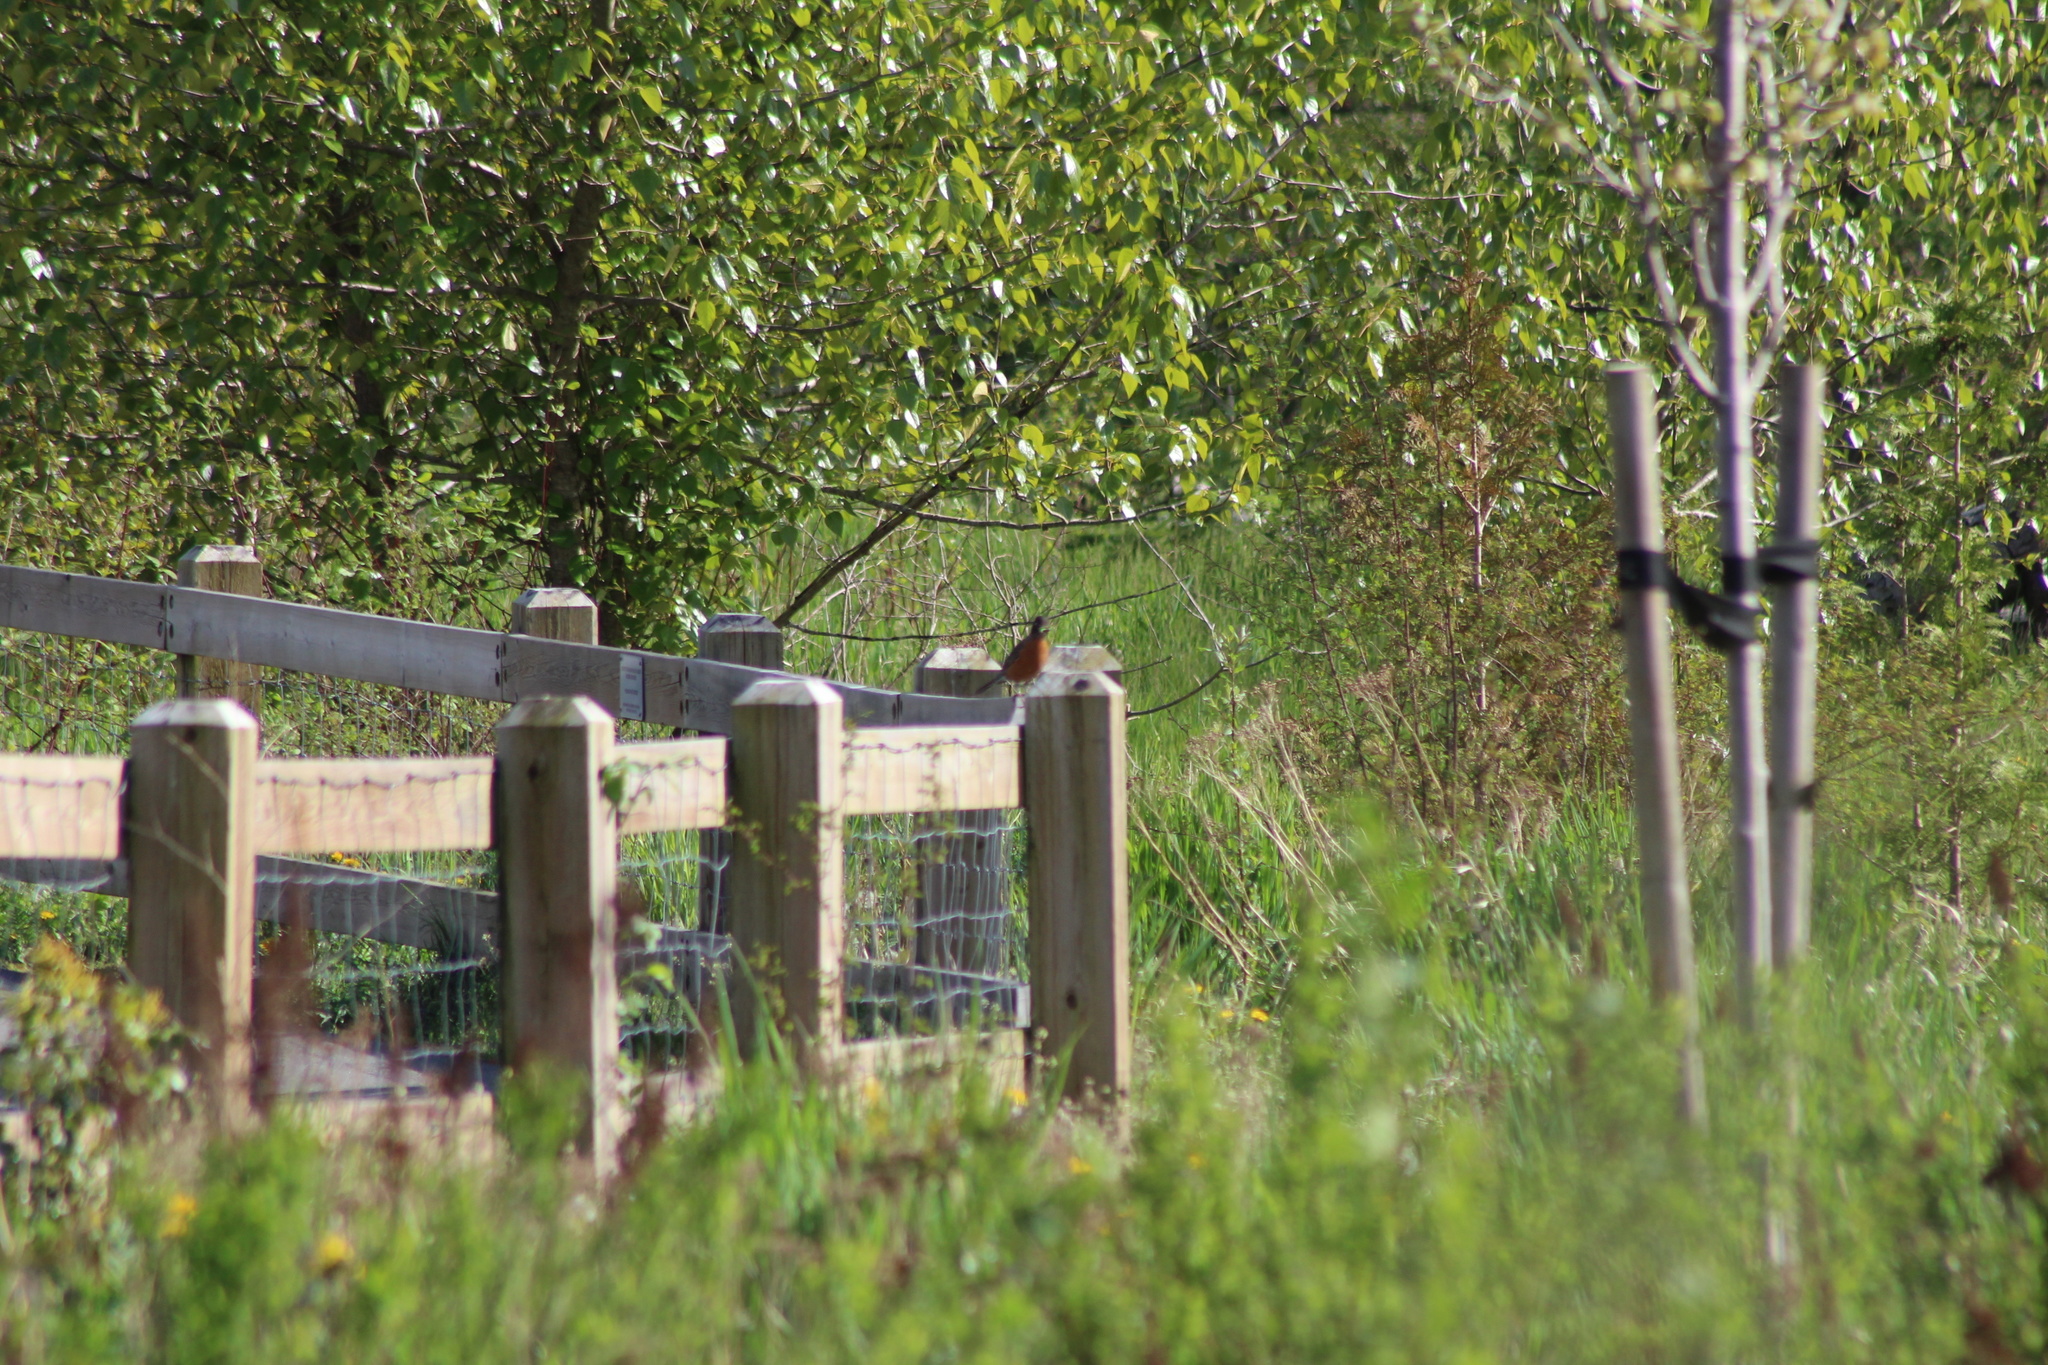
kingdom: Animalia
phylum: Chordata
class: Aves
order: Passeriformes
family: Turdidae
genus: Turdus
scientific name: Turdus migratorius
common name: American robin
